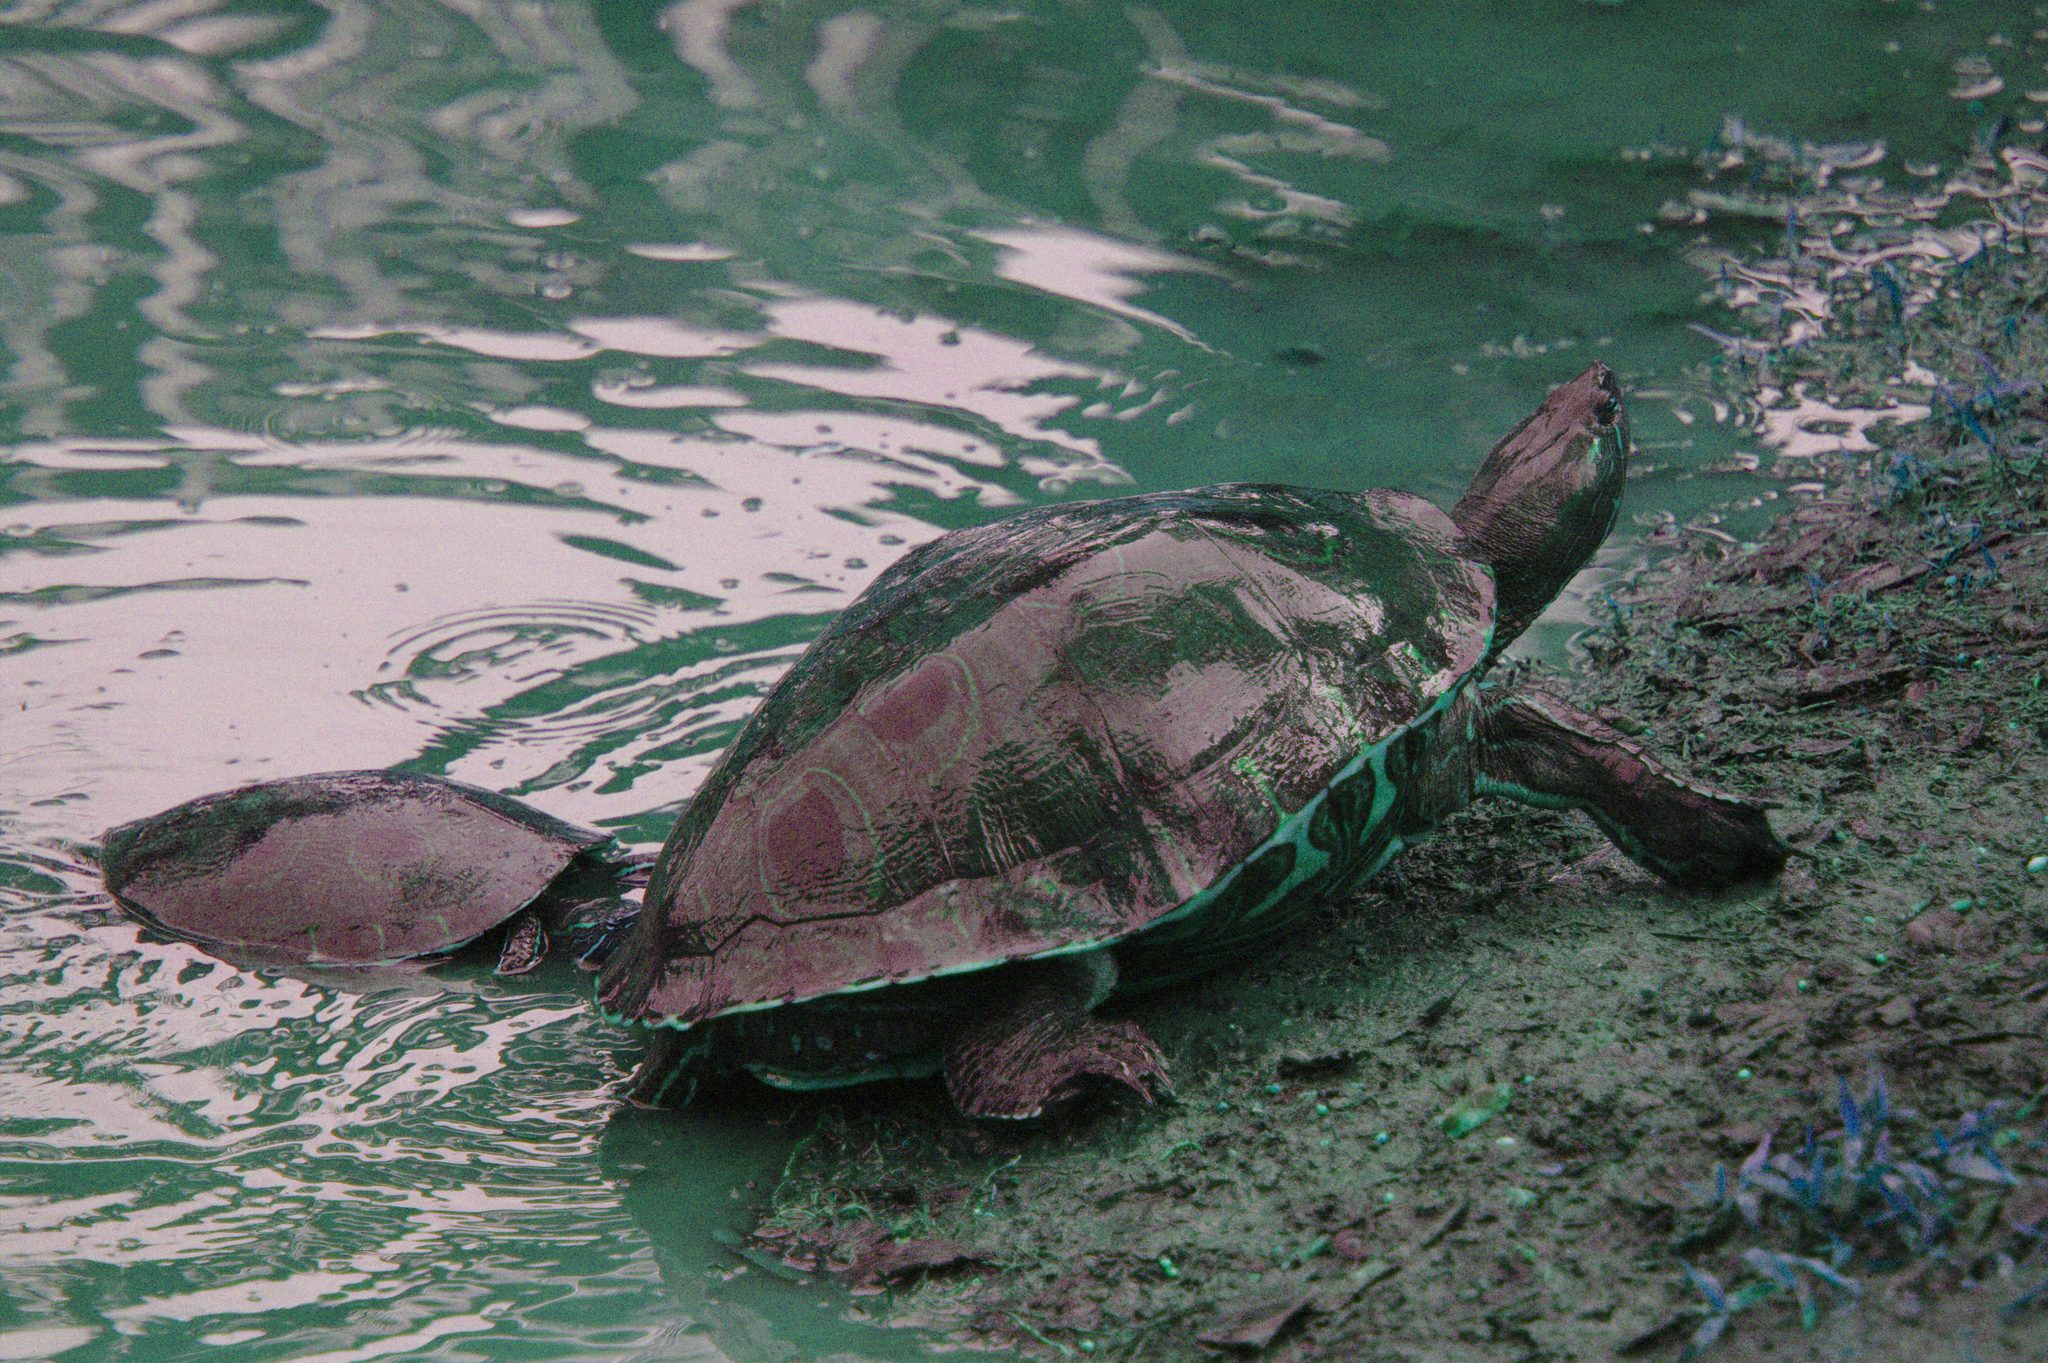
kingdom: Animalia
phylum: Chordata
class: Testudines
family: Emydidae
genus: Trachemys
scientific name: Trachemys venusta
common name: Mesoamerican slider
